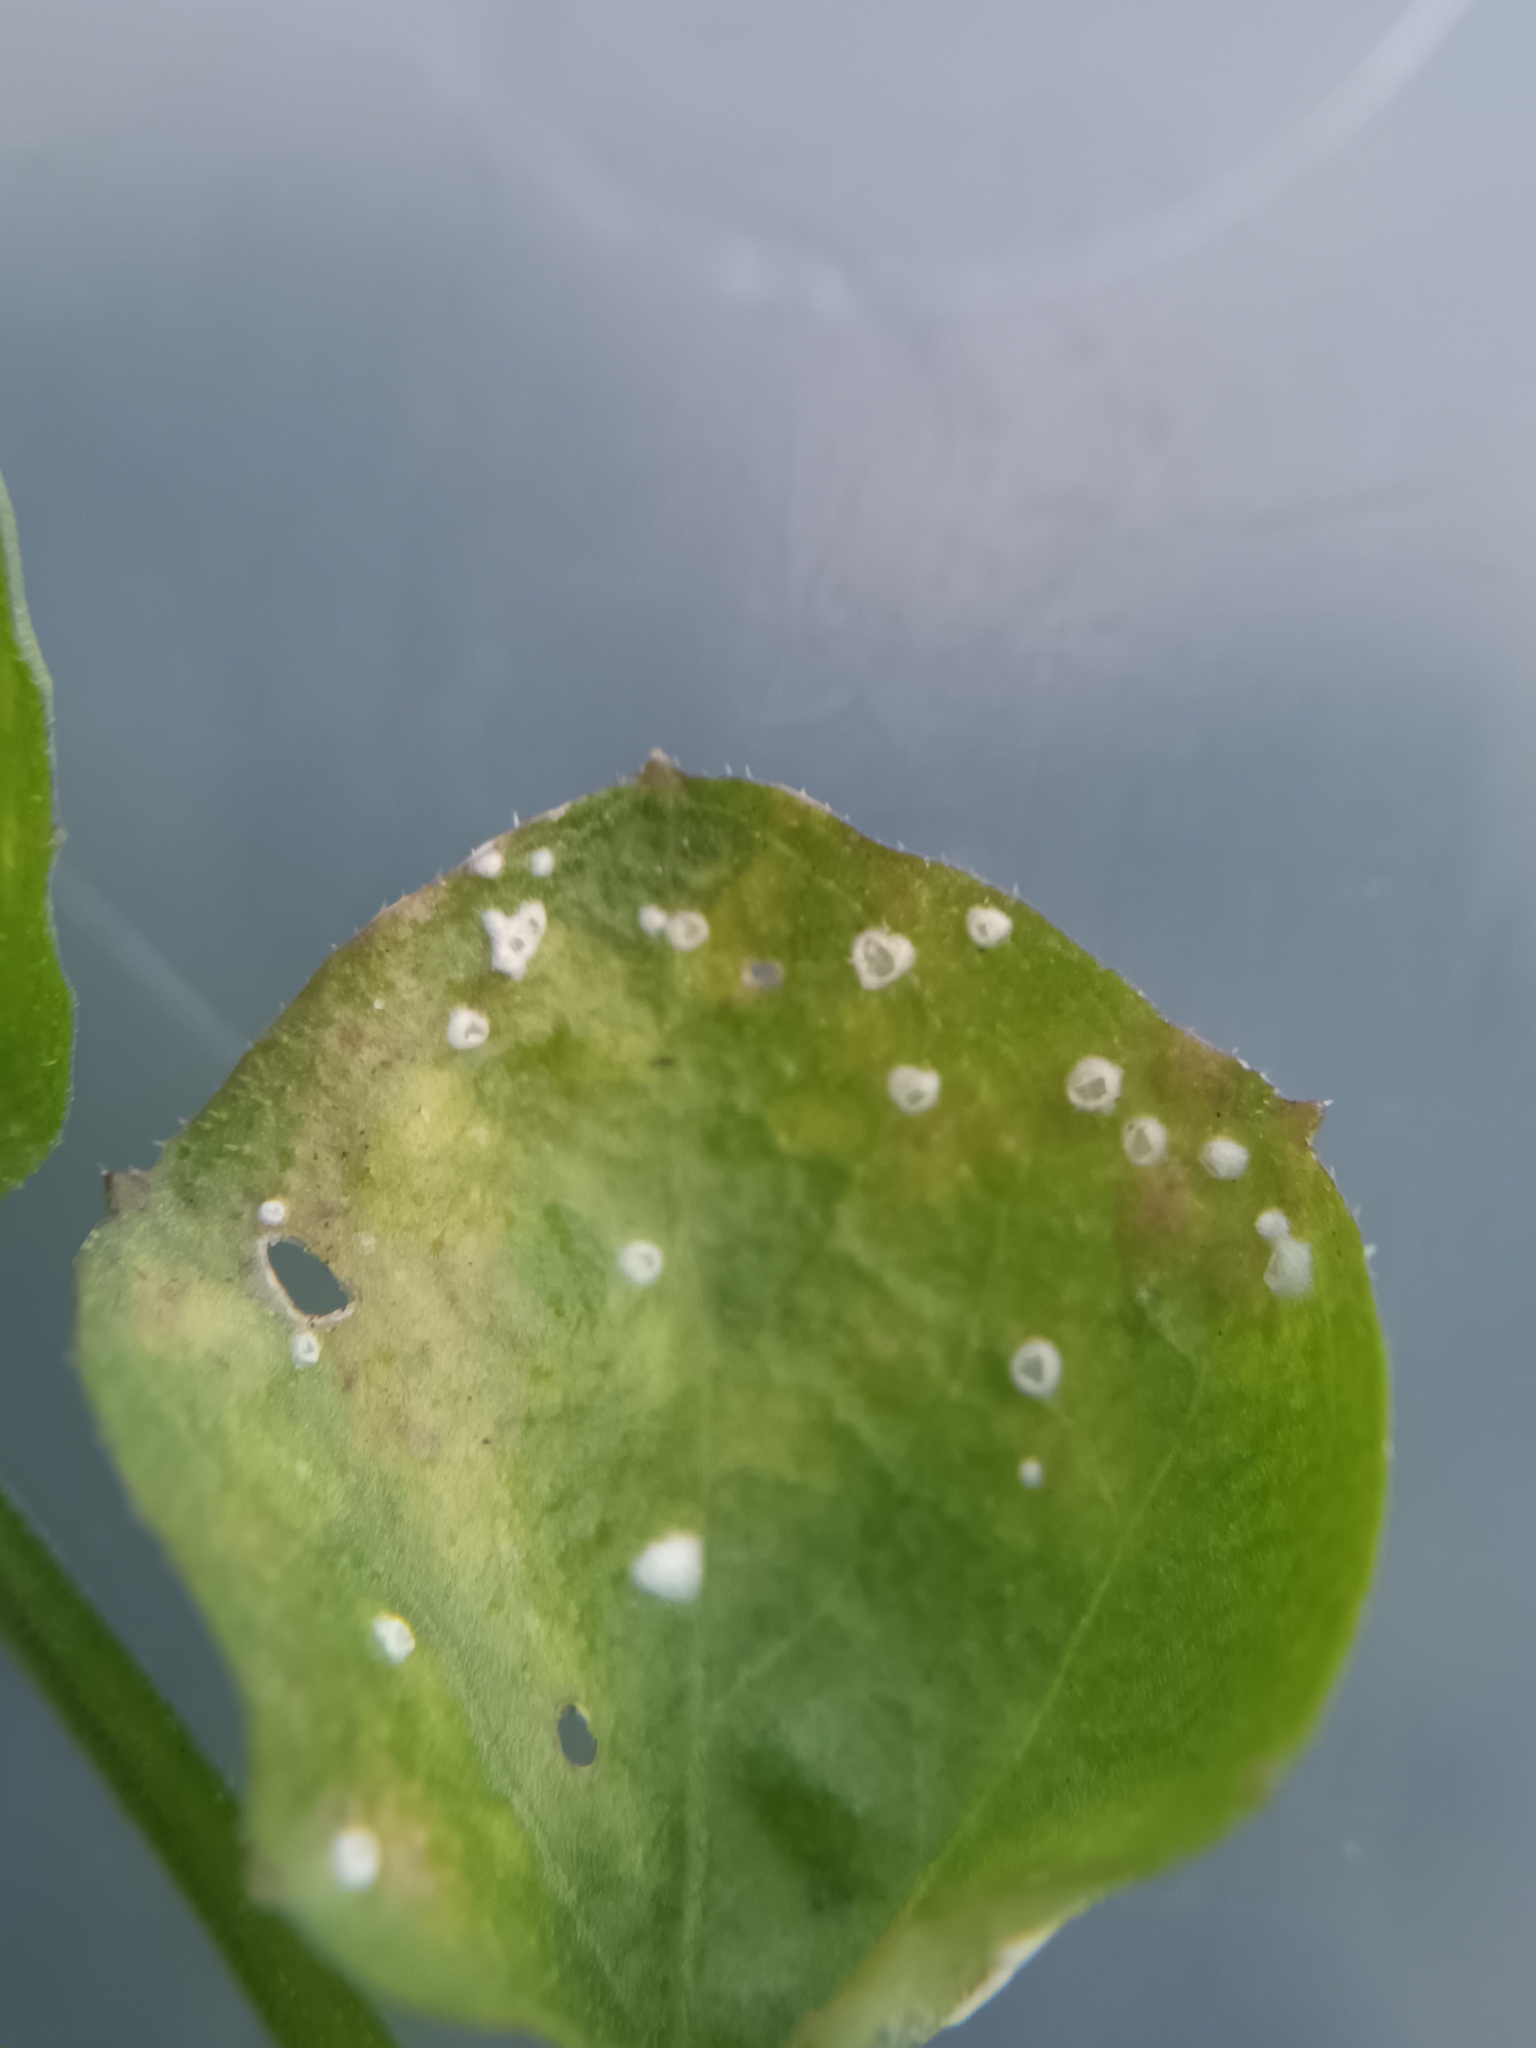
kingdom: Chromista
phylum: Oomycota
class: Peronosporea
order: Albuginales
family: Albuginaceae
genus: Albugo
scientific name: Albugo leimonia
